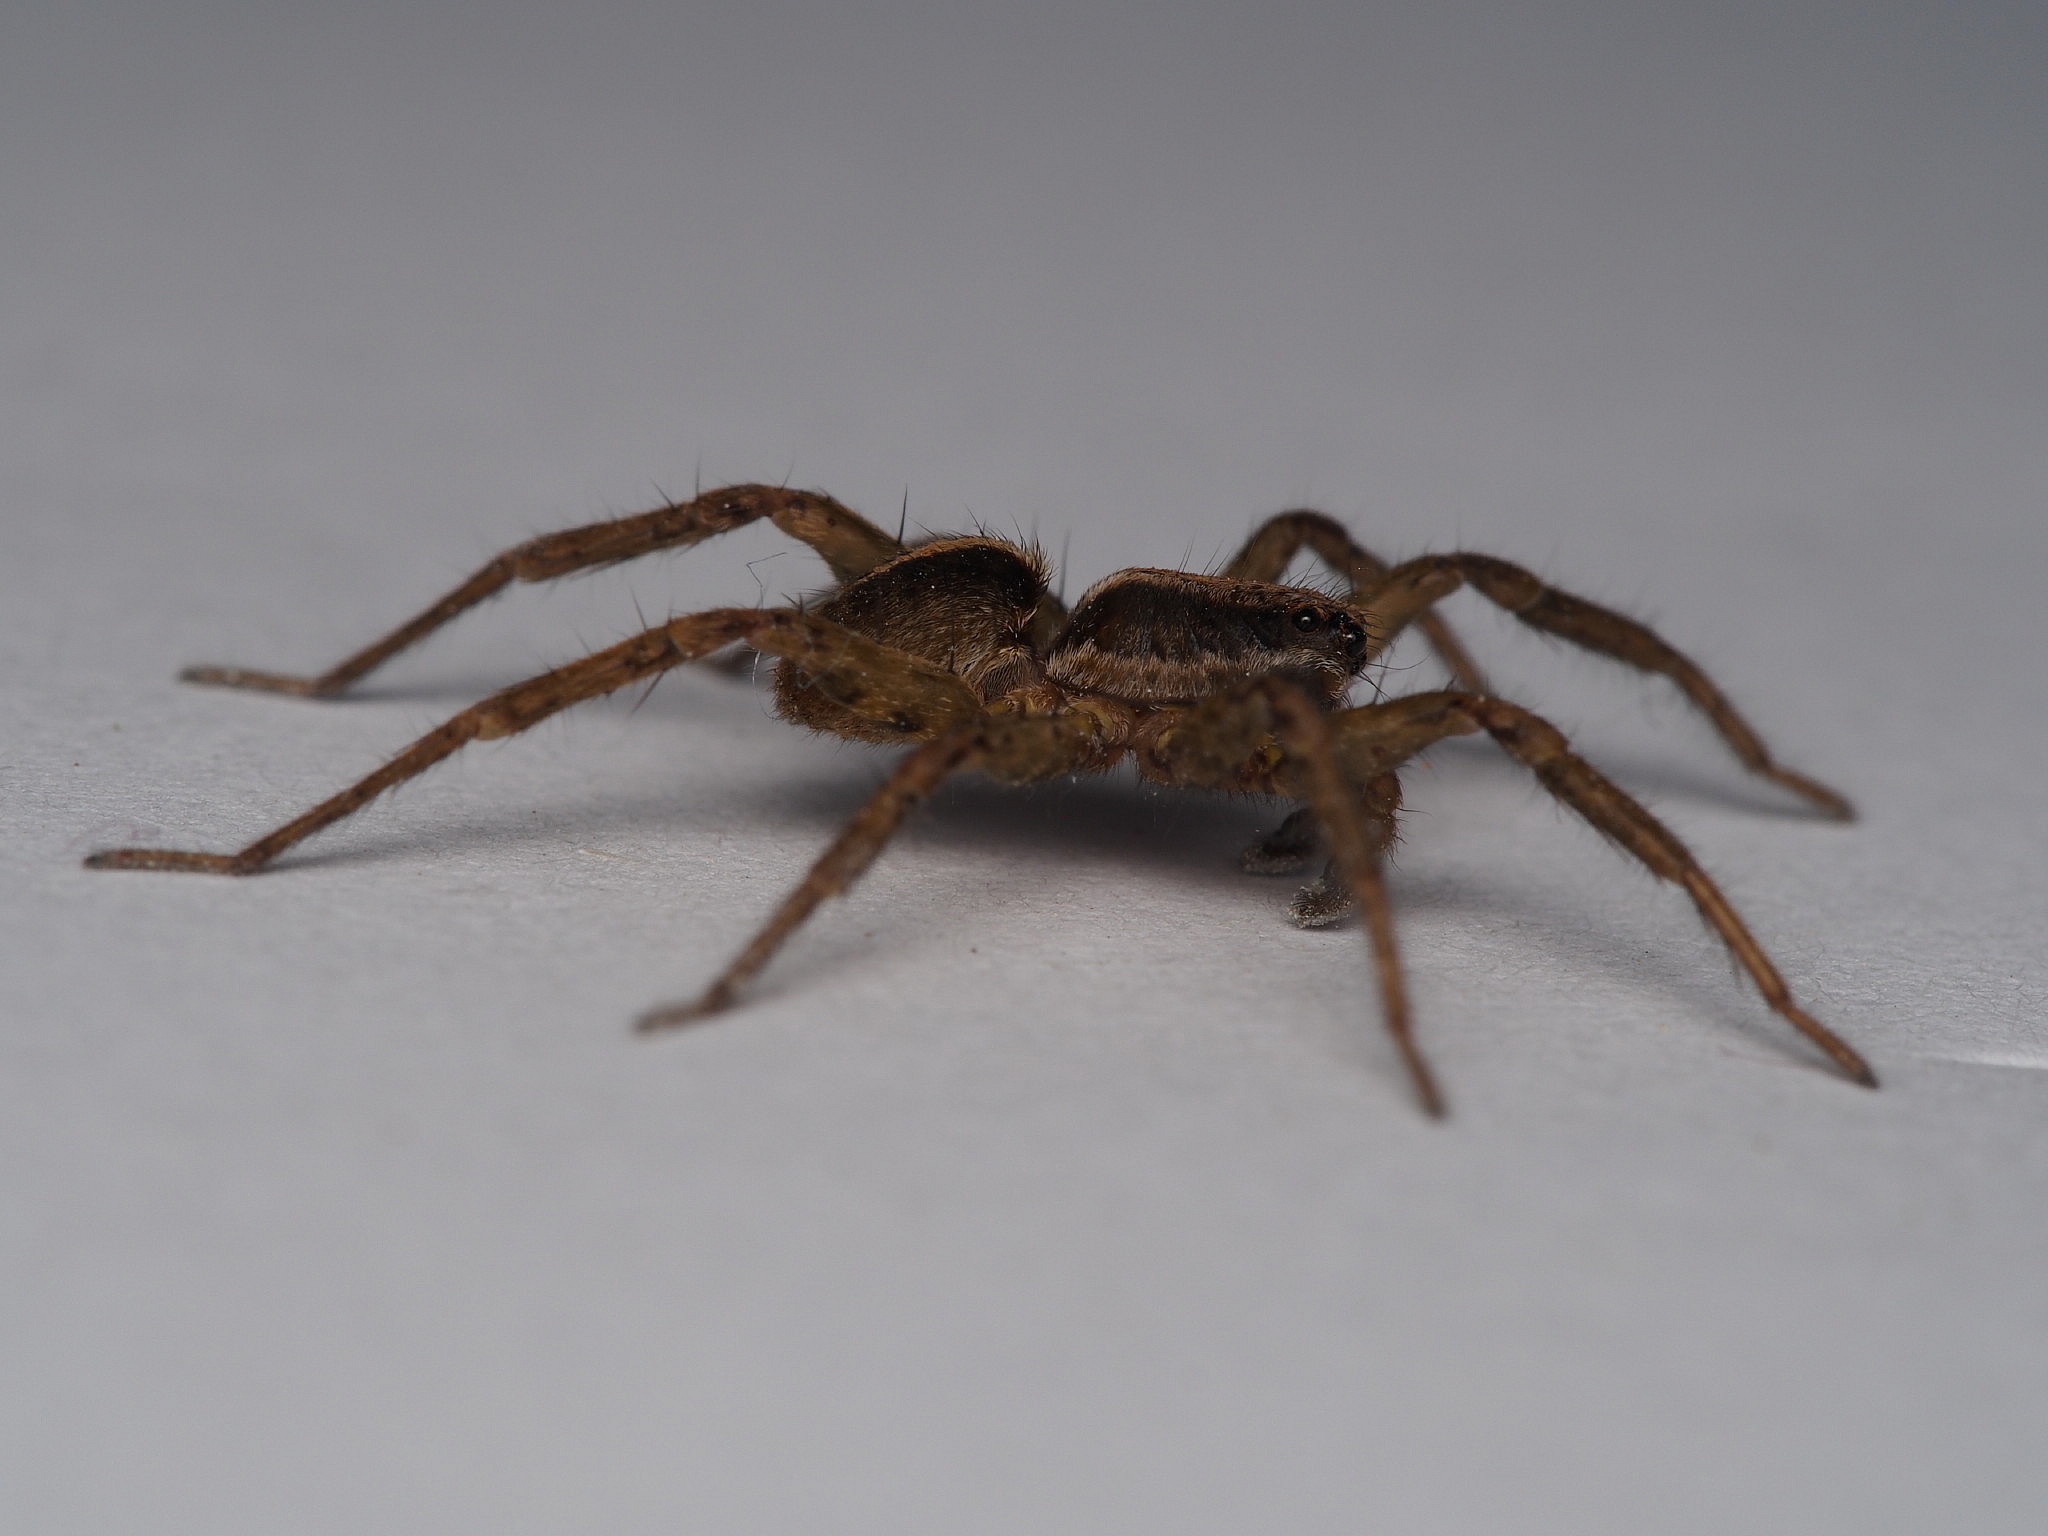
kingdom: Animalia
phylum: Arthropoda
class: Arachnida
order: Araneae
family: Lycosidae
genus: Anoteropsis
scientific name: Anoteropsis hilaris
